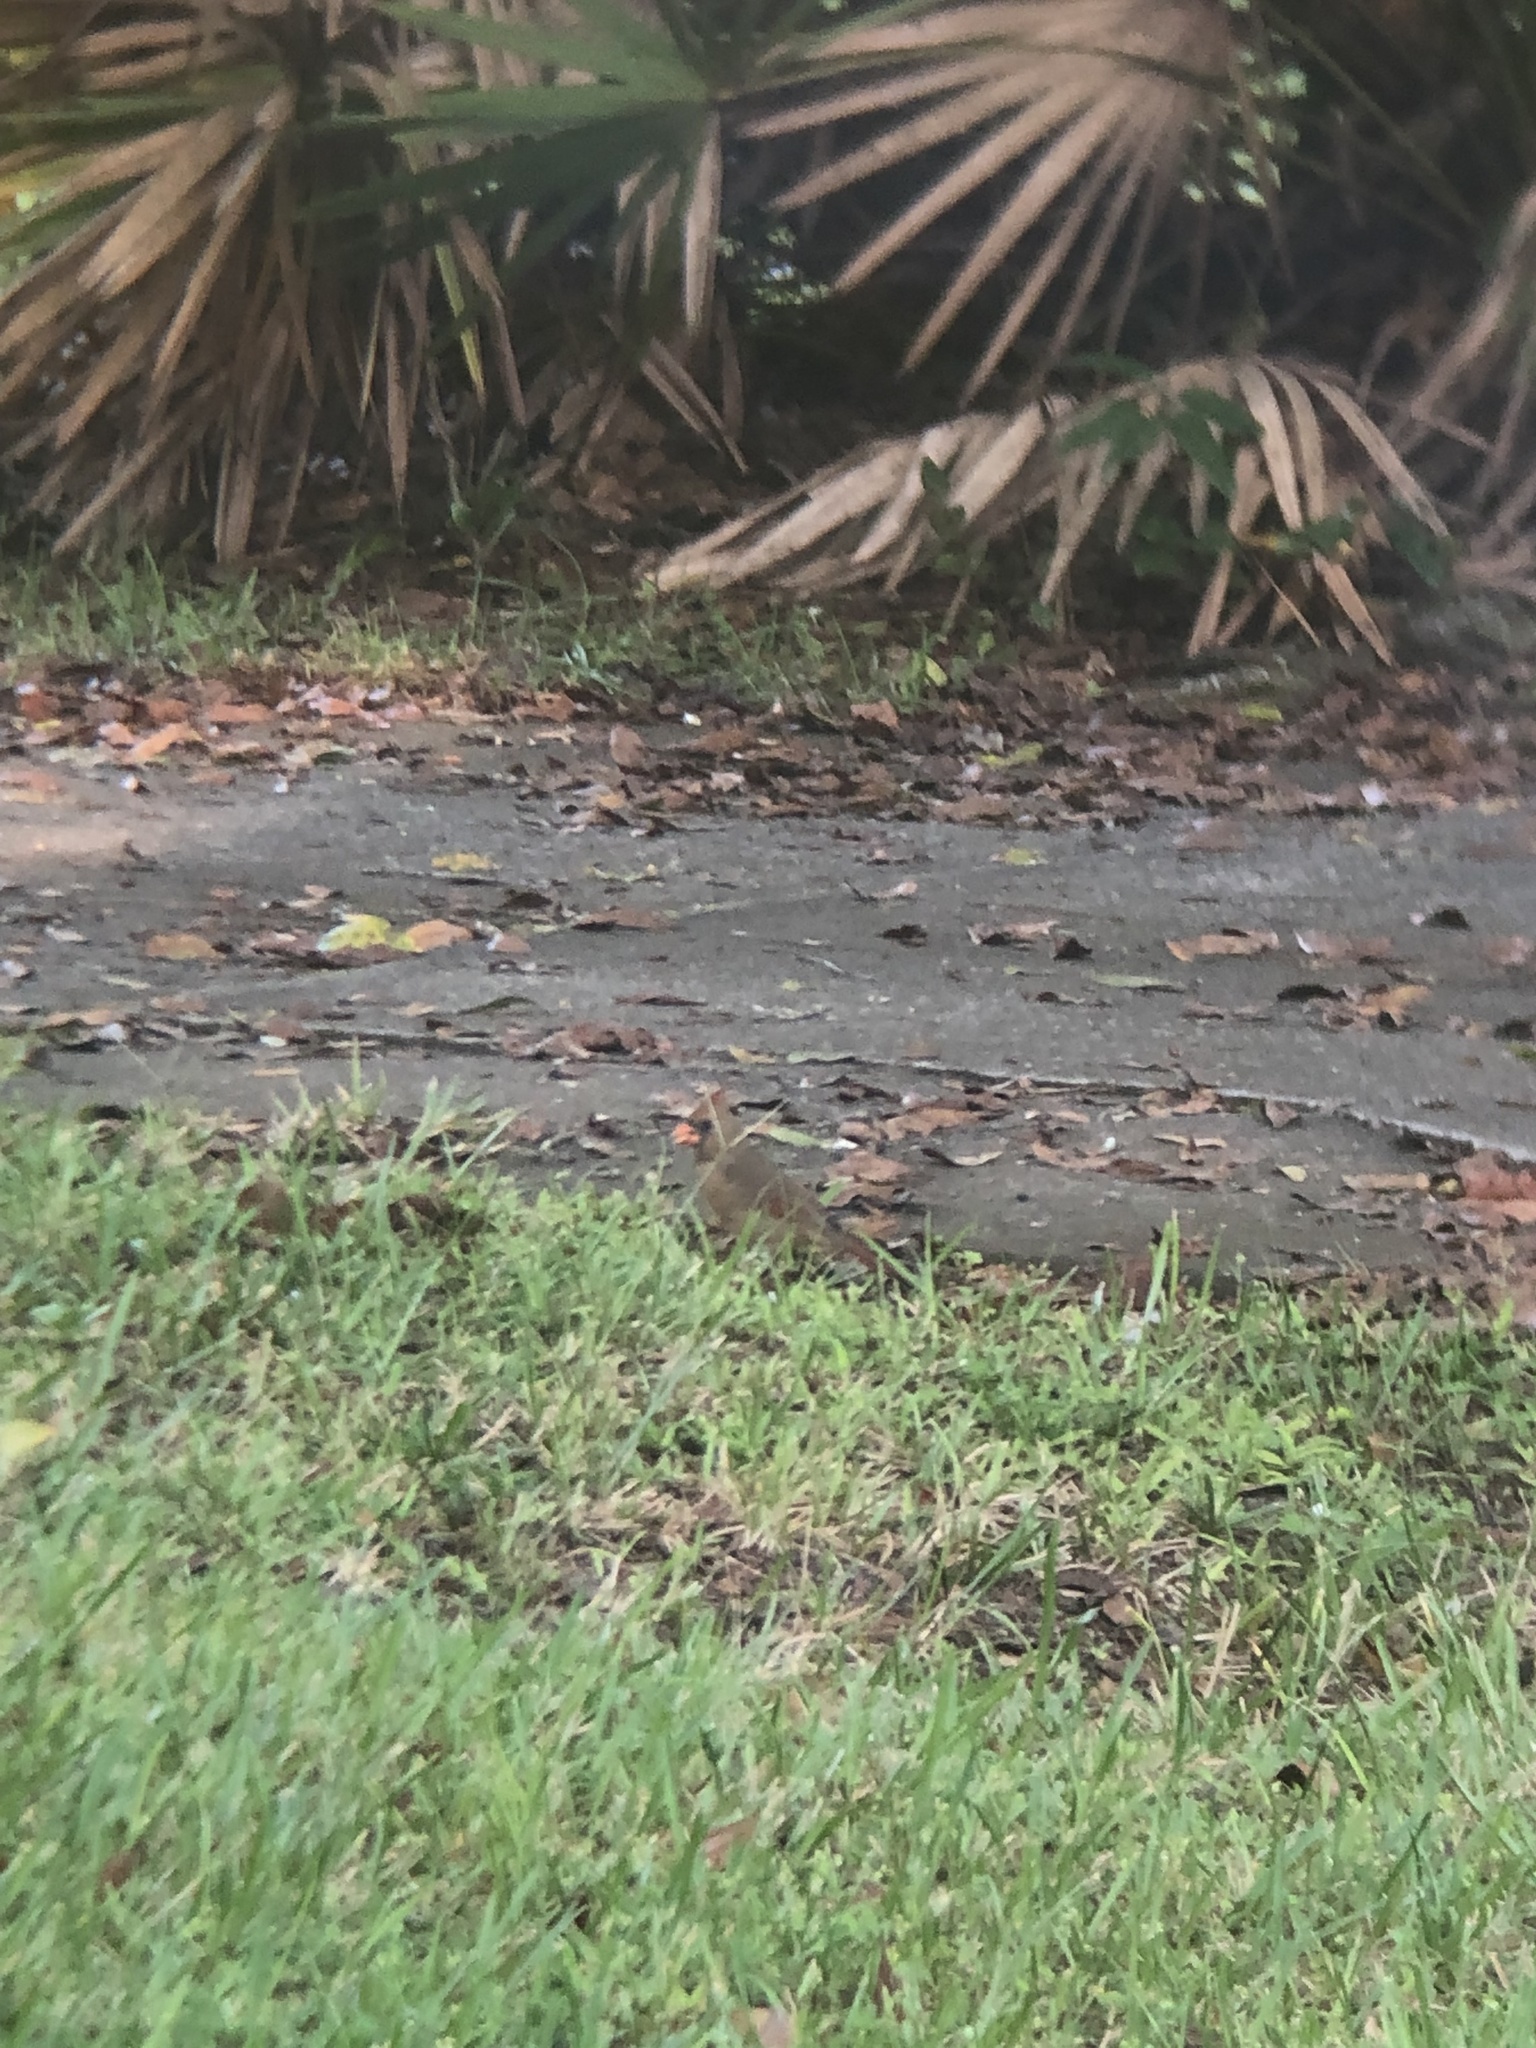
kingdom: Animalia
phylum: Chordata
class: Aves
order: Passeriformes
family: Cardinalidae
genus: Cardinalis
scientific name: Cardinalis cardinalis
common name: Northern cardinal
